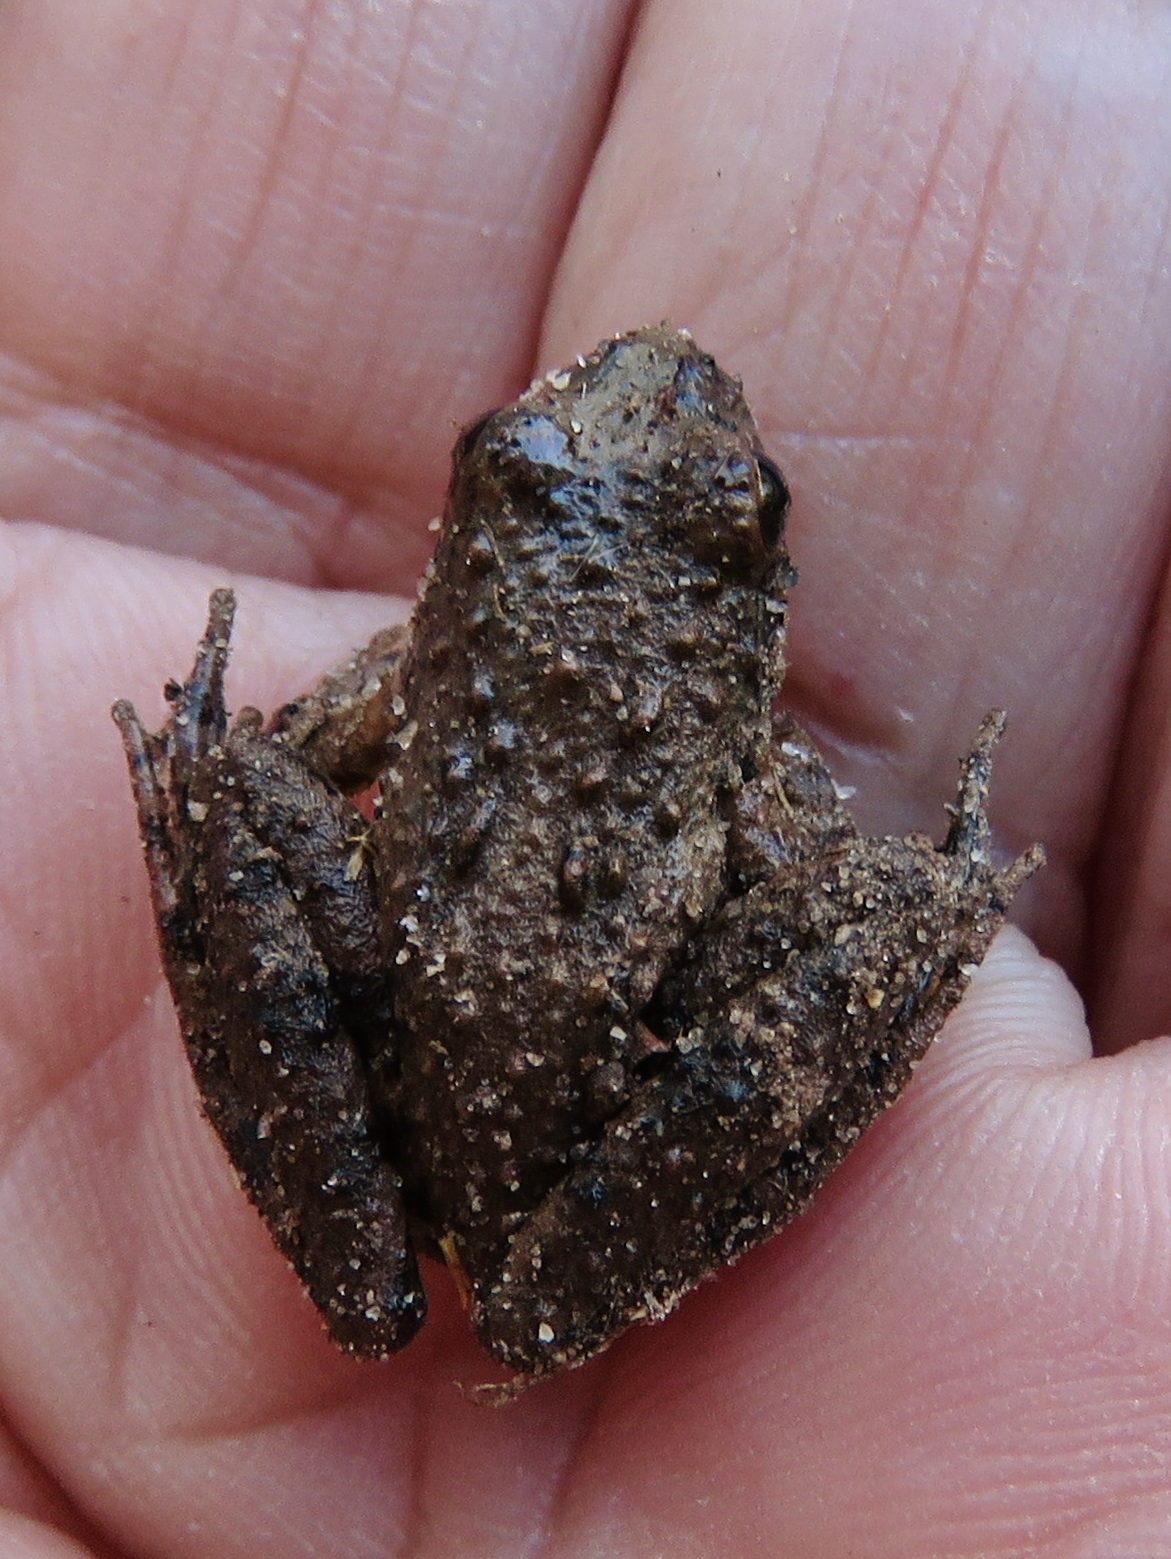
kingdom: Animalia
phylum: Chordata
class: Amphibia
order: Anura
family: Hylidae
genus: Acris
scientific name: Acris blanchardi
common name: Blanchard's cricket frog
